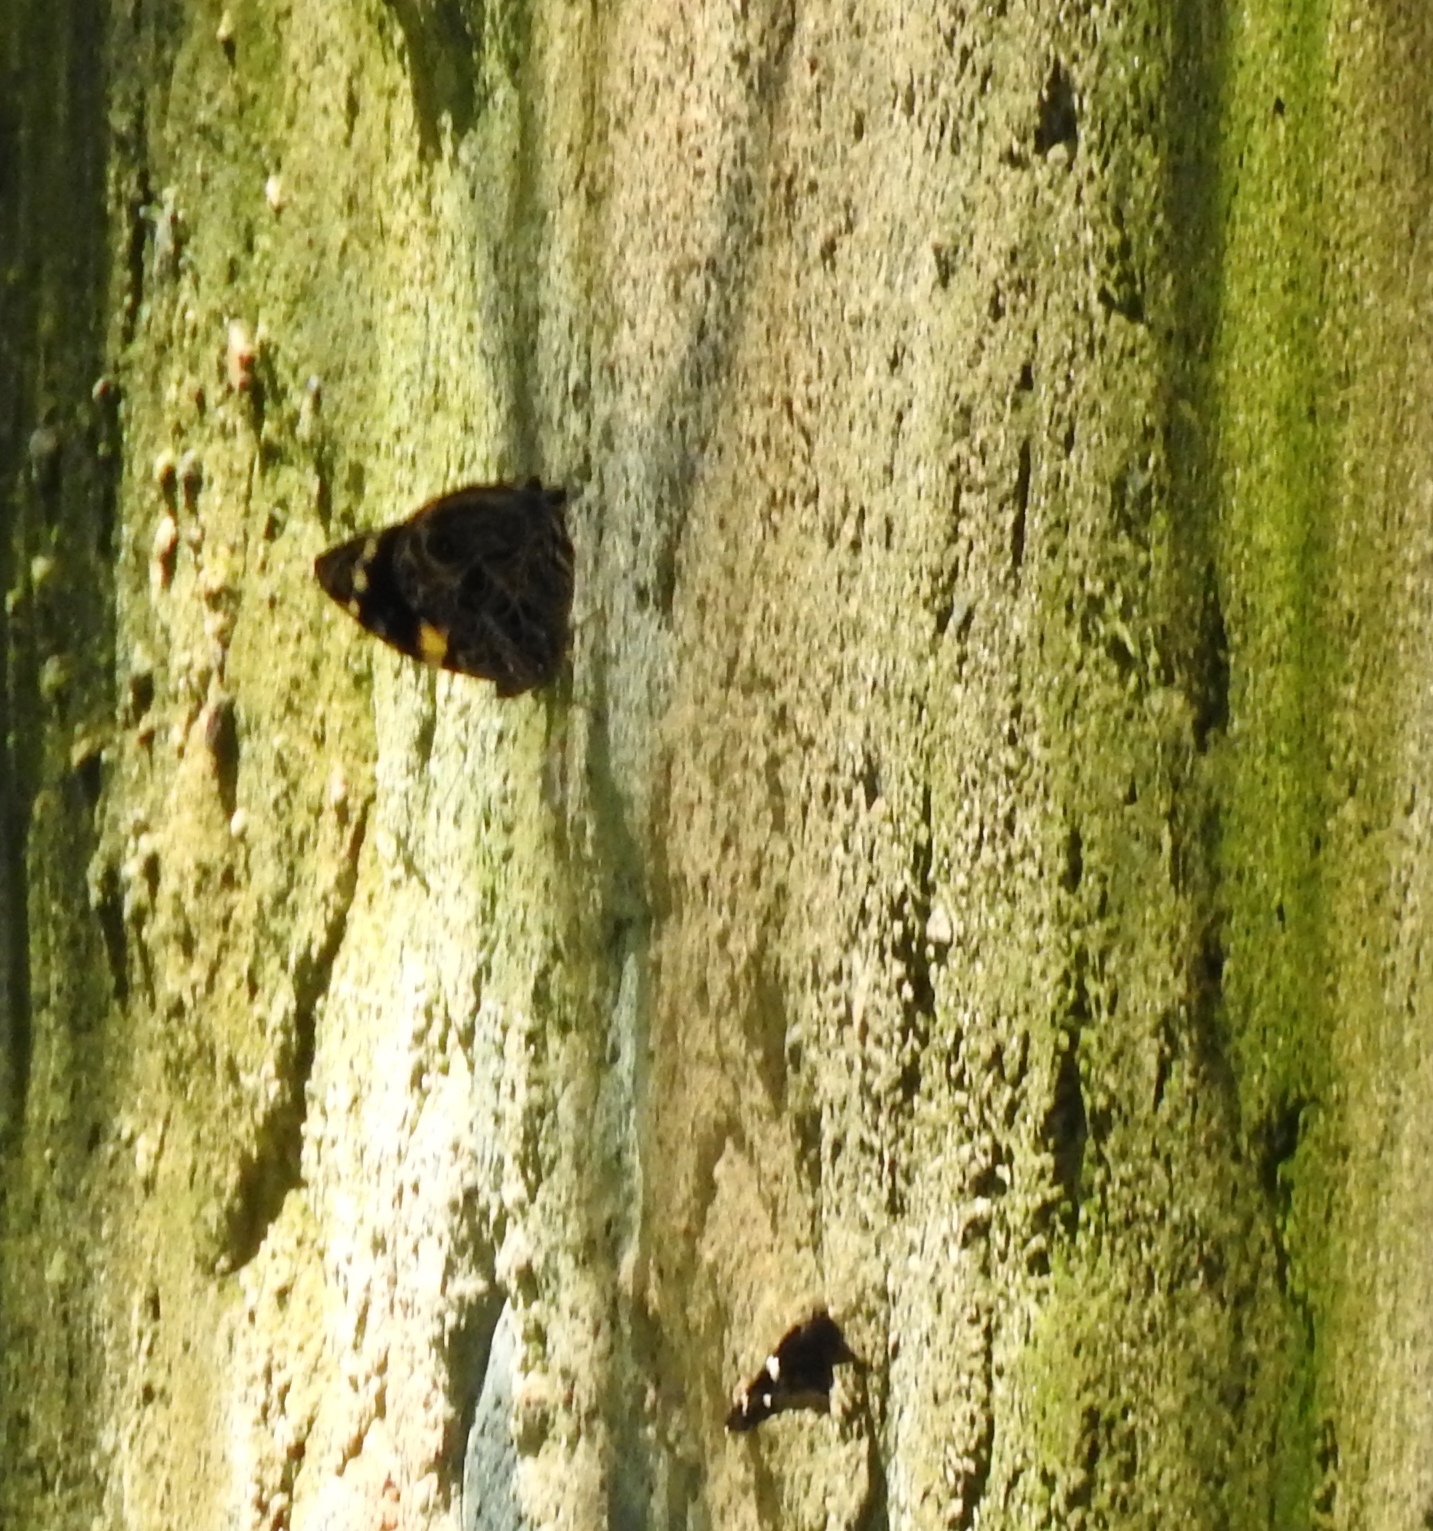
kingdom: Animalia
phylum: Arthropoda
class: Insecta
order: Lepidoptera
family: Nymphalidae
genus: Smyrna
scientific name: Smyrna blomfildia
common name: Blomfild's beauty
